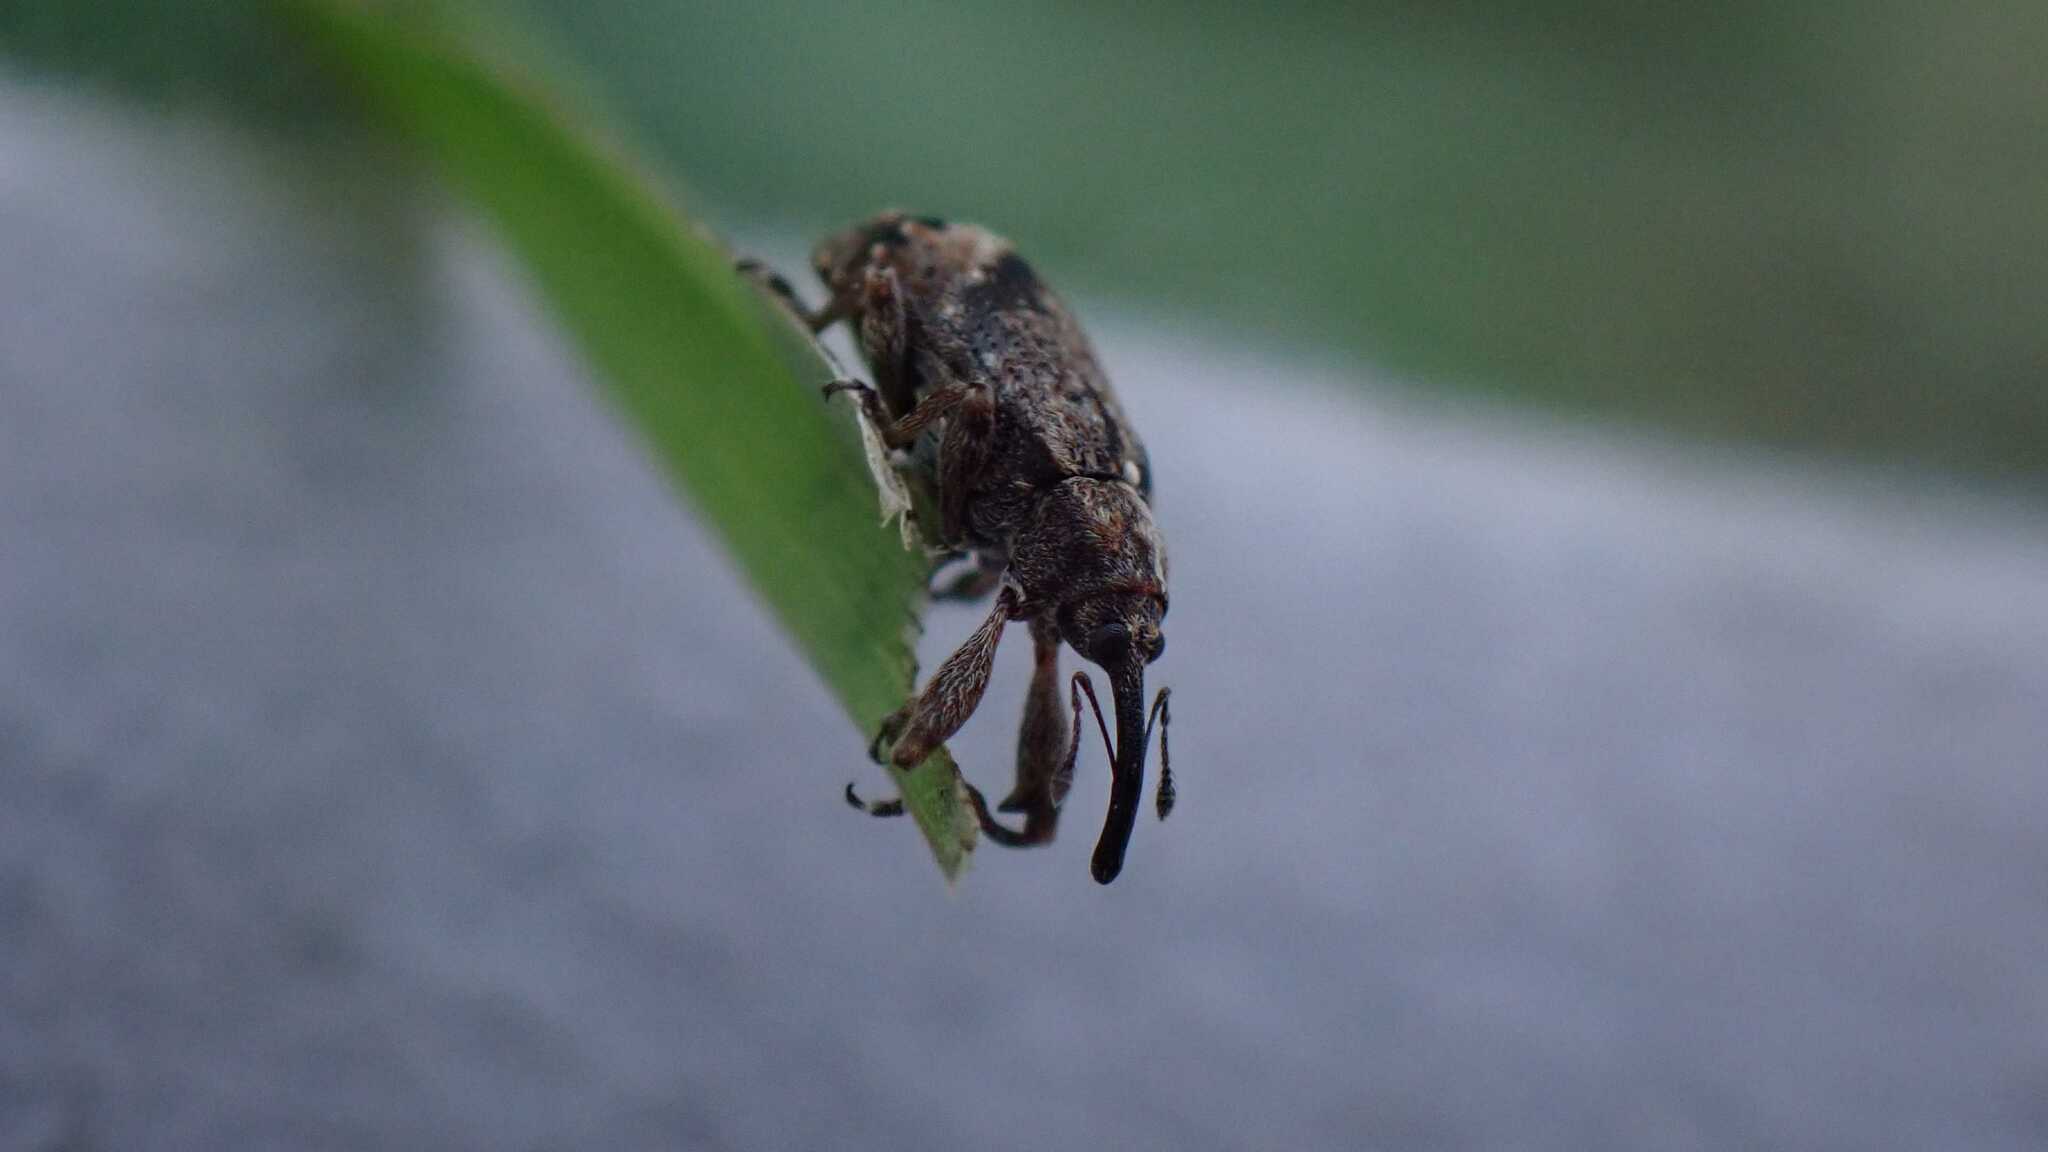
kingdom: Animalia
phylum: Arthropoda
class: Insecta
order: Coleoptera
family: Curculionidae
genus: Anthonomus
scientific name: Anthonomus pomorum
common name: Apple-blossom weevil
